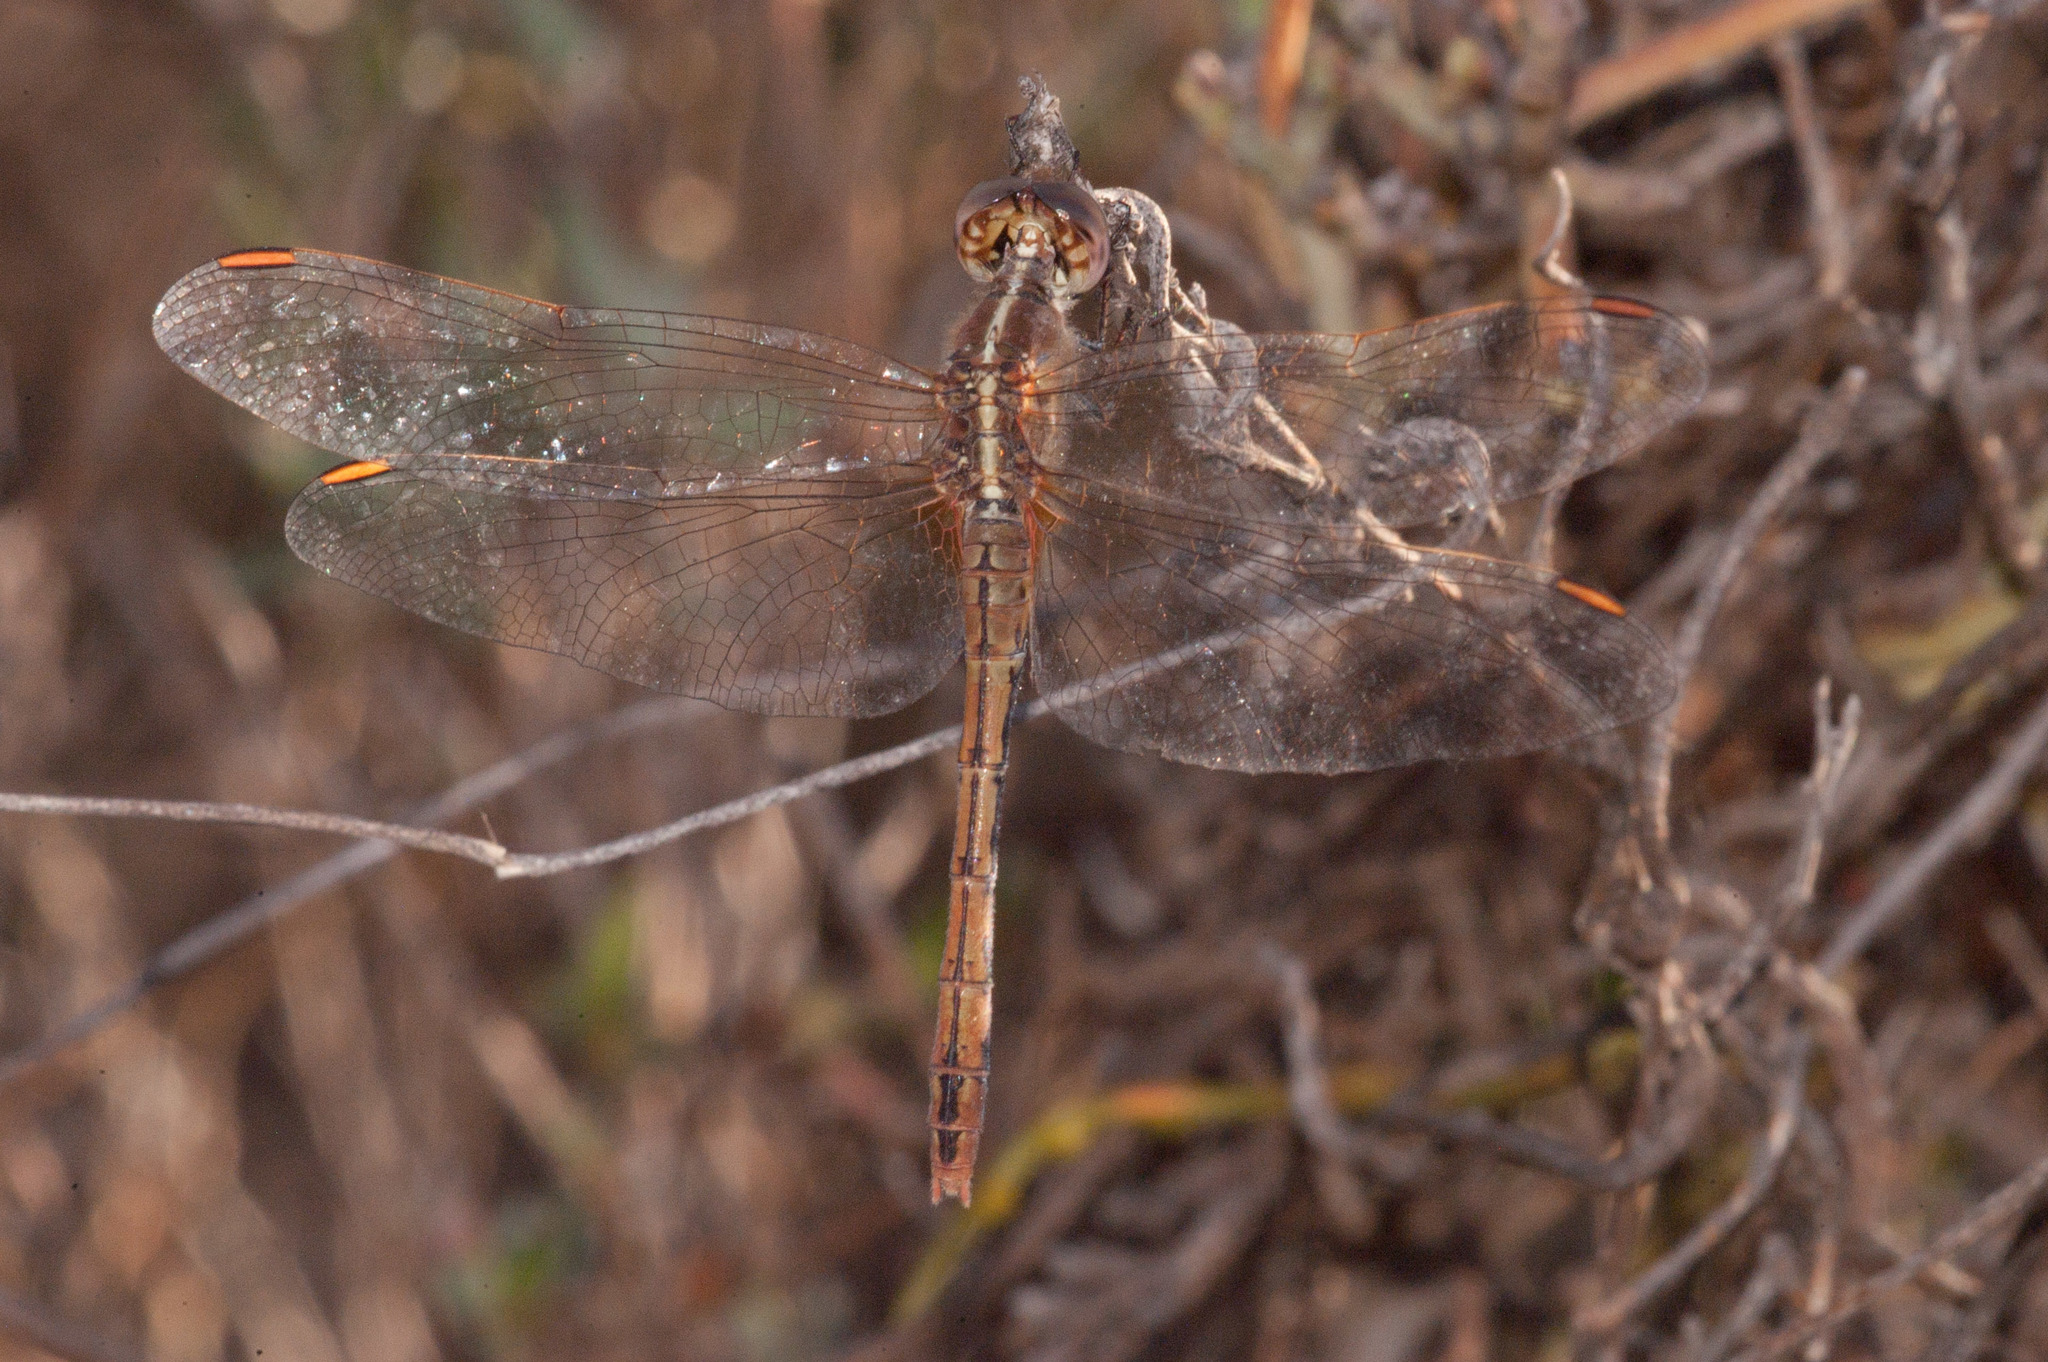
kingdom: Animalia
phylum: Arthropoda
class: Insecta
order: Odonata
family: Libellulidae
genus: Diplacodes
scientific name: Diplacodes bipunctata
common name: Red percher dragonfly
